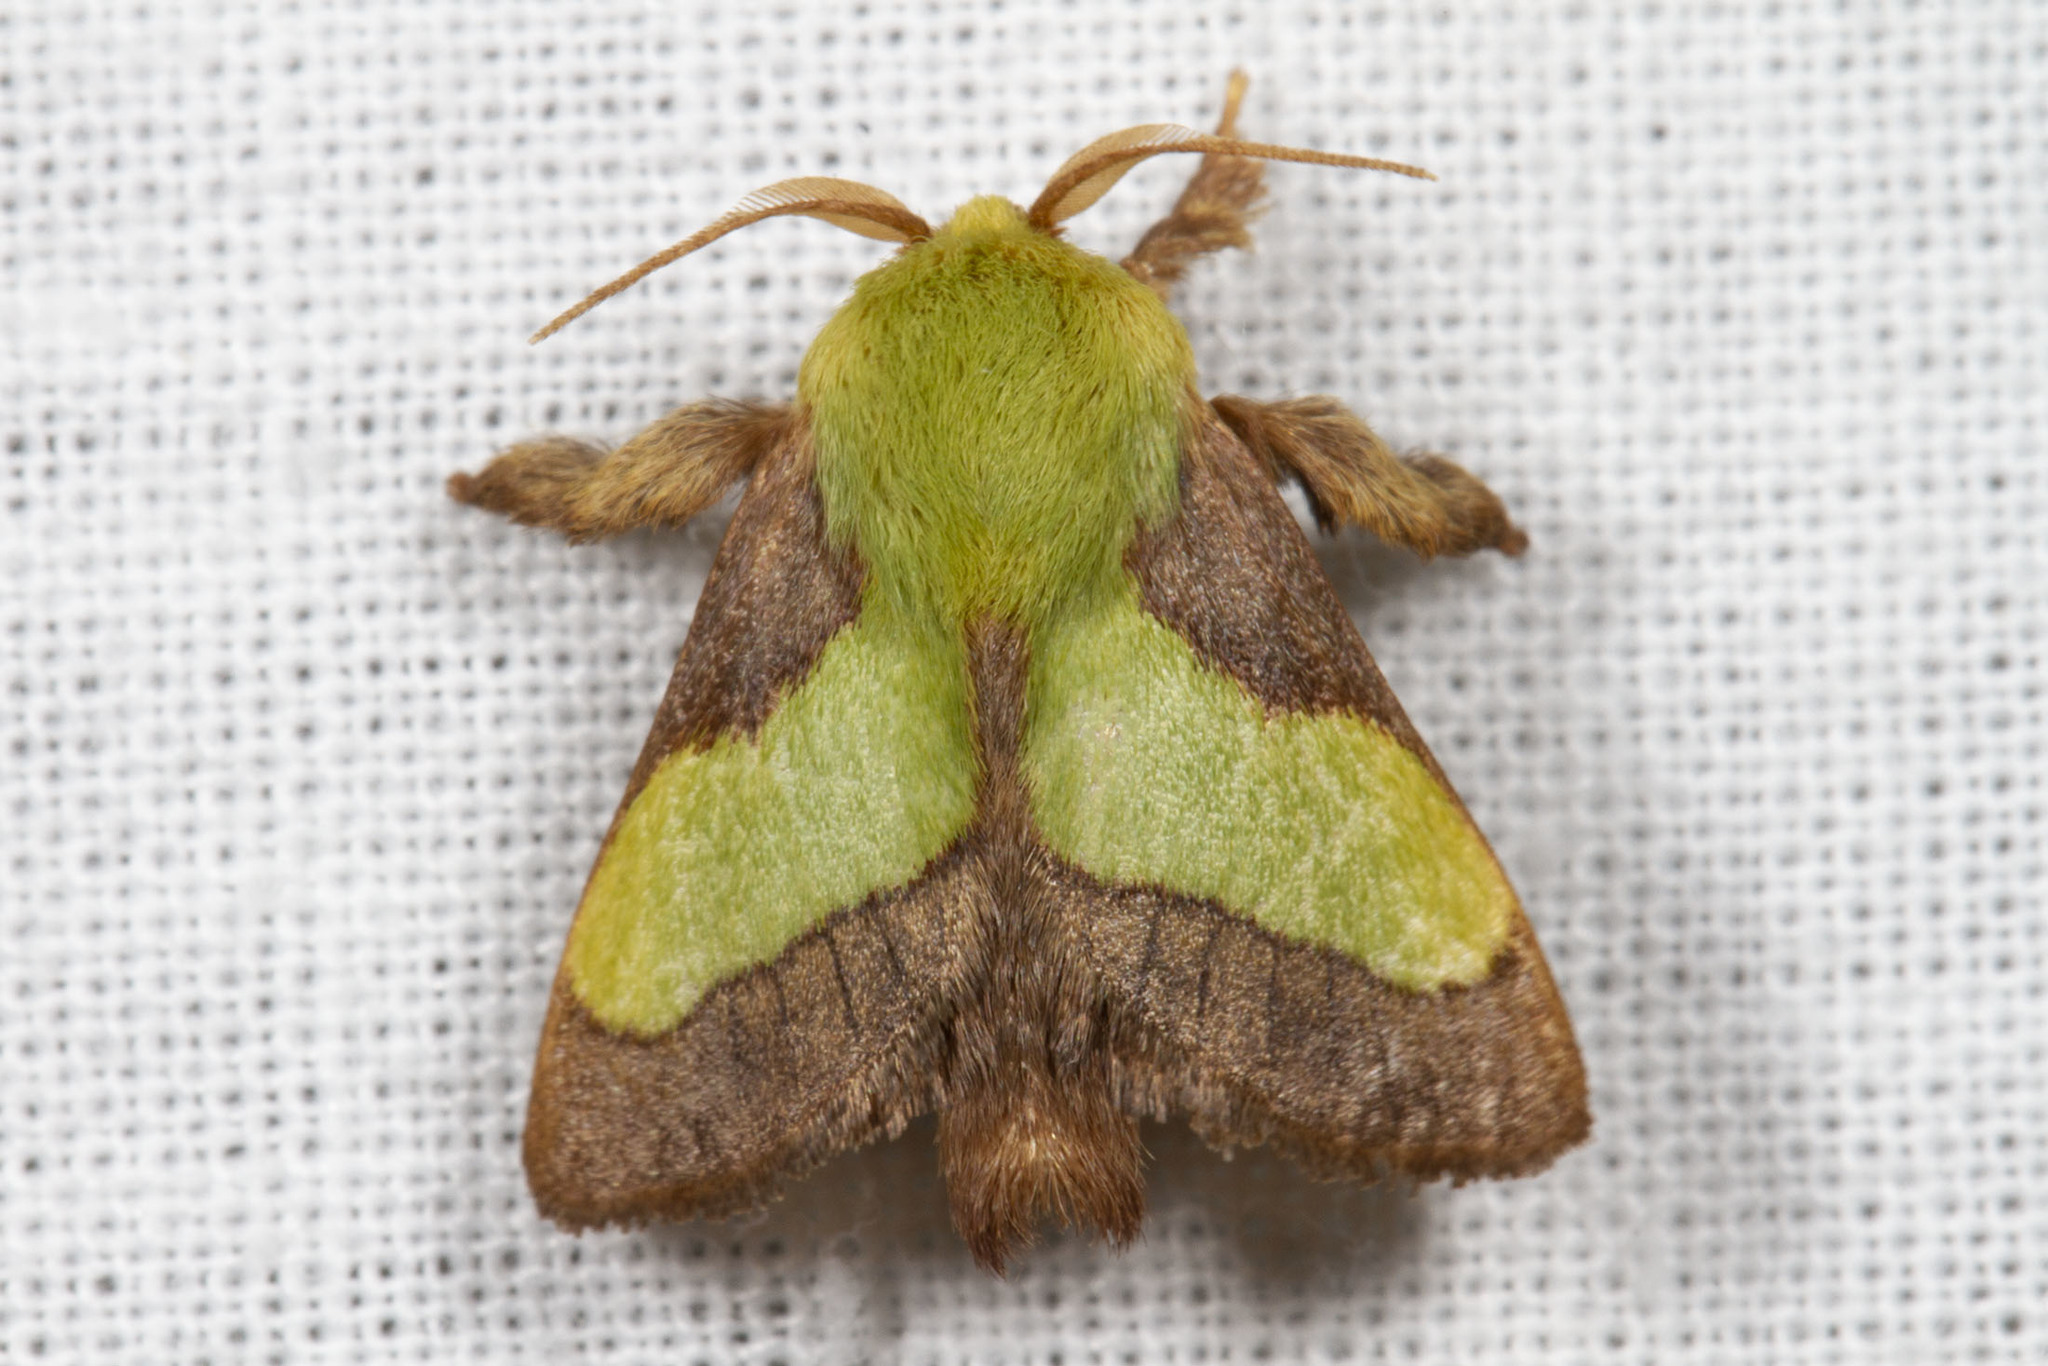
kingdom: Animalia
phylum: Arthropoda
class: Insecta
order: Lepidoptera
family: Limacodidae
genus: Parasa
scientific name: Parasa chloris
